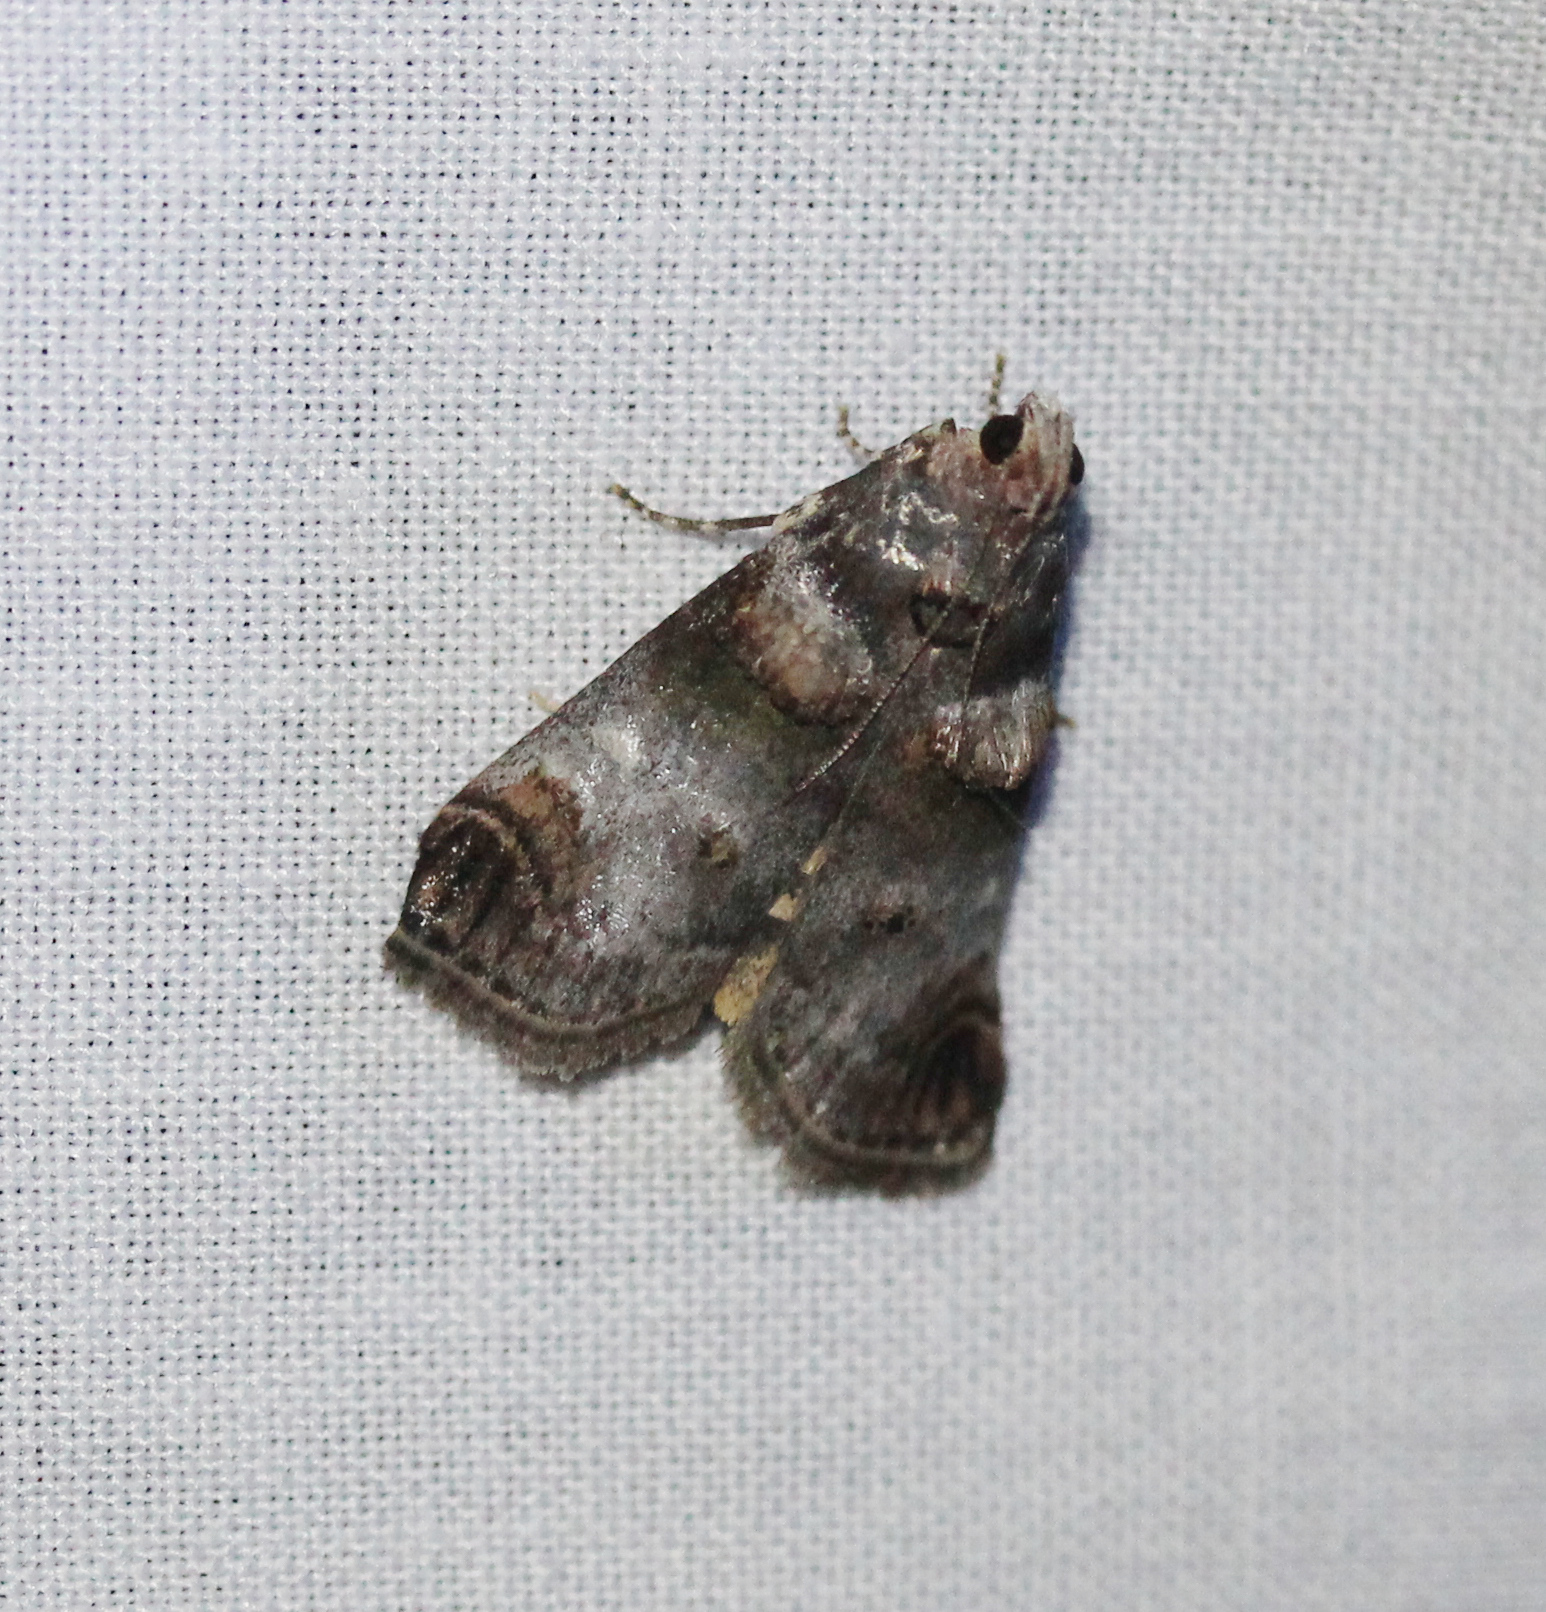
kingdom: Animalia
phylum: Arthropoda
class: Insecta
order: Lepidoptera
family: Pyralidae
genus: Oneida
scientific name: Oneida lunulalis
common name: Orange-tufted oneida moth
